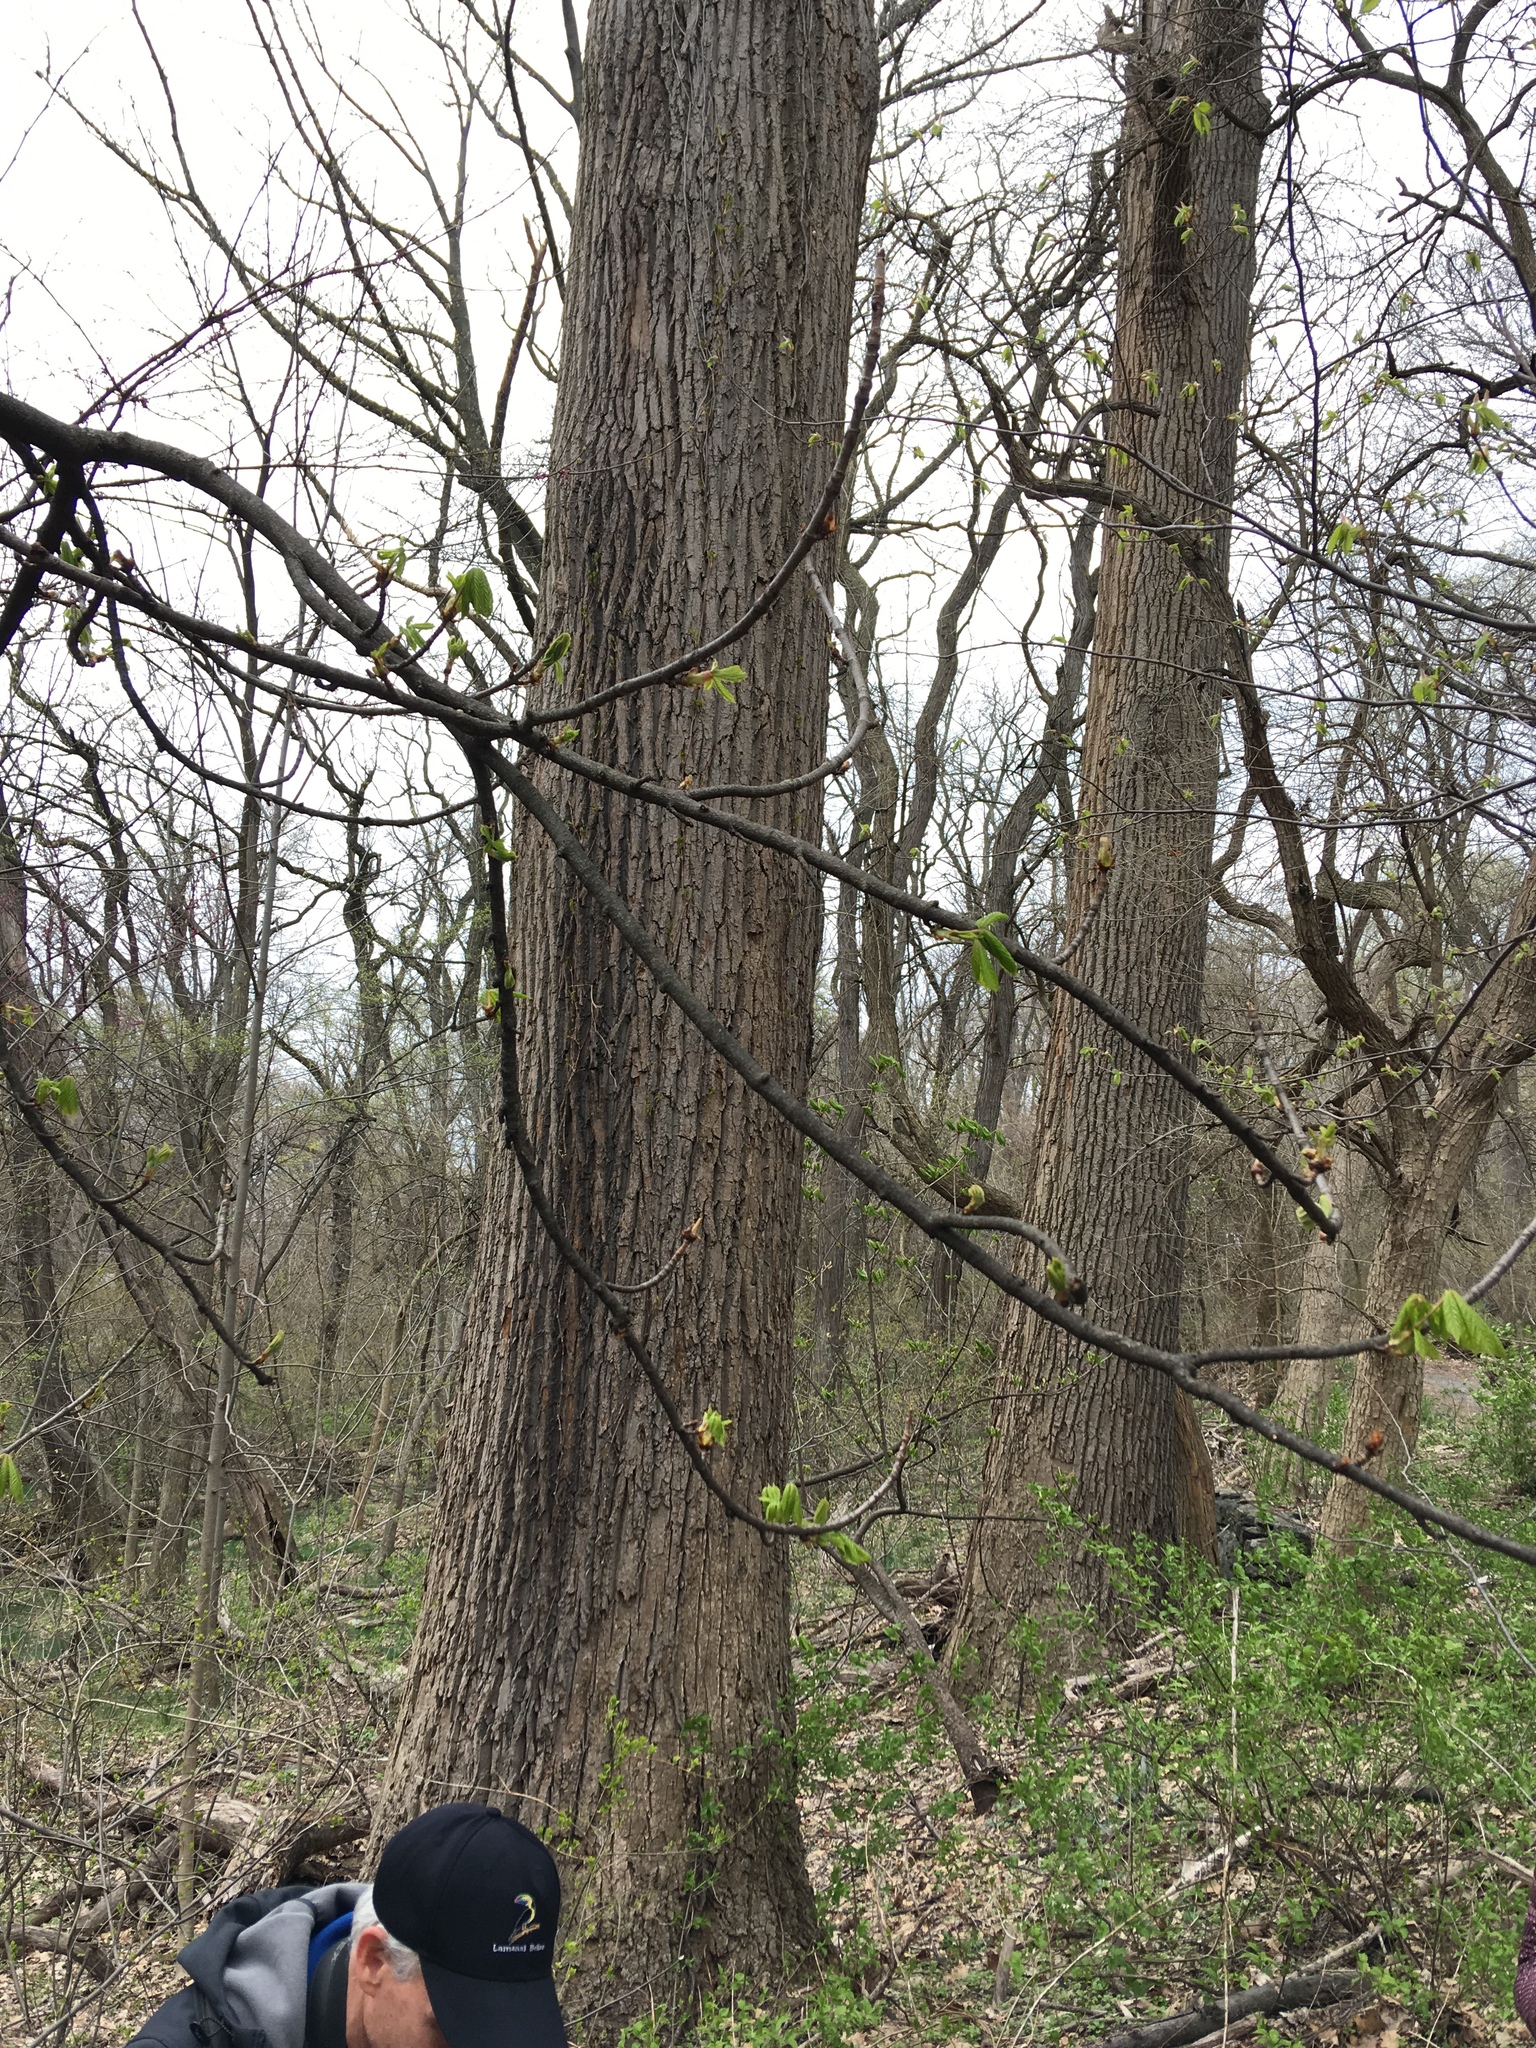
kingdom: Plantae
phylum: Tracheophyta
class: Magnoliopsida
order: Magnoliales
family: Magnoliaceae
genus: Liriodendron
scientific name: Liriodendron tulipifera
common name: Tulip tree
